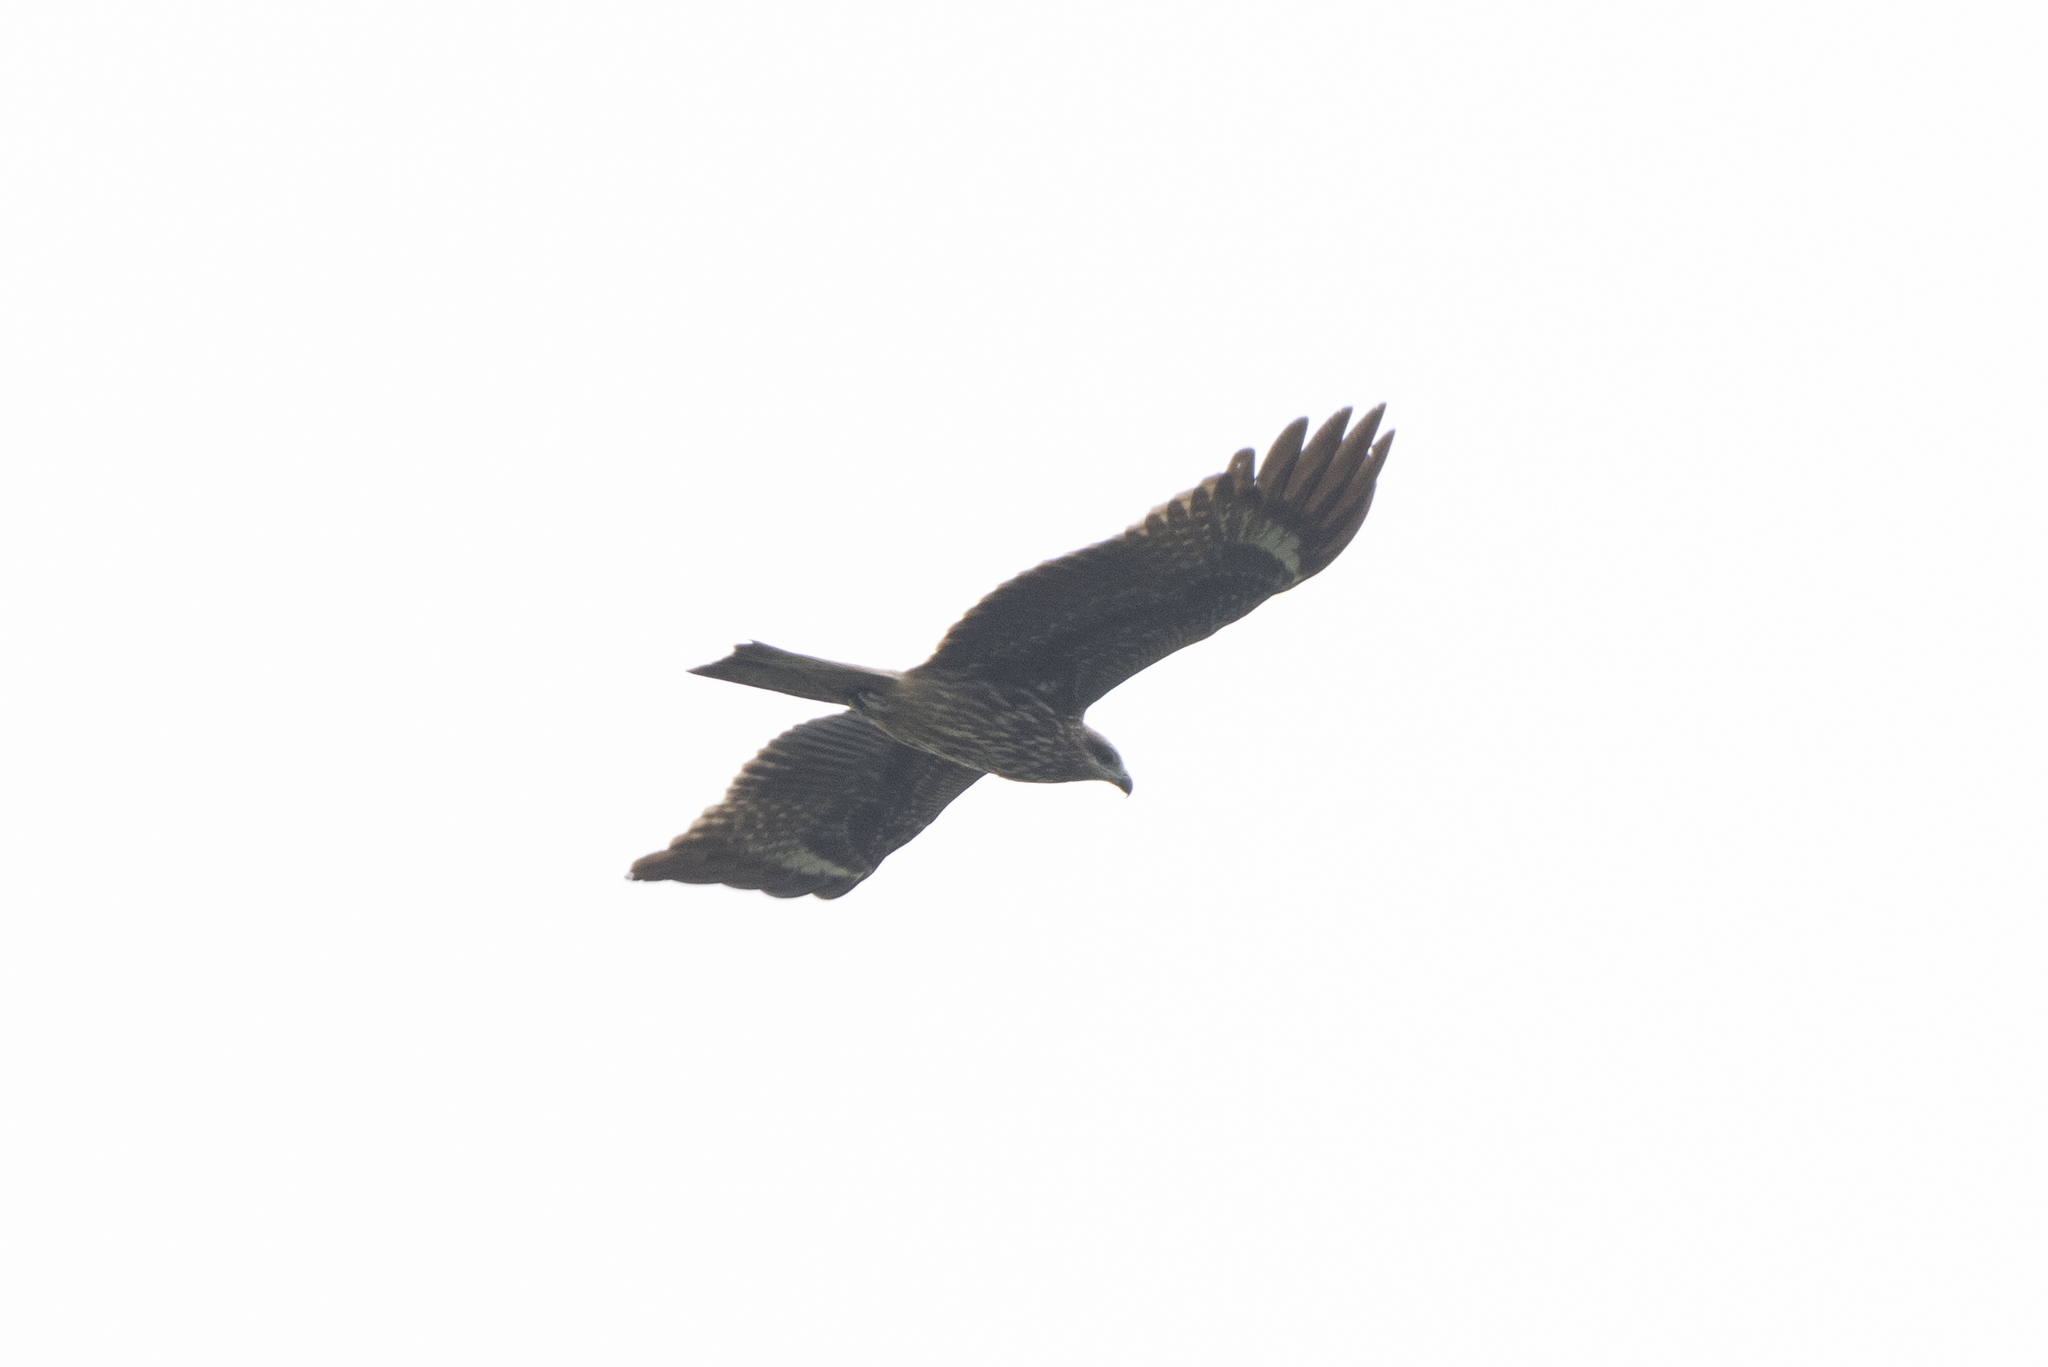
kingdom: Animalia
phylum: Chordata
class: Aves
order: Accipitriformes
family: Accipitridae
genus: Milvus
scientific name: Milvus migrans
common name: Black kite
